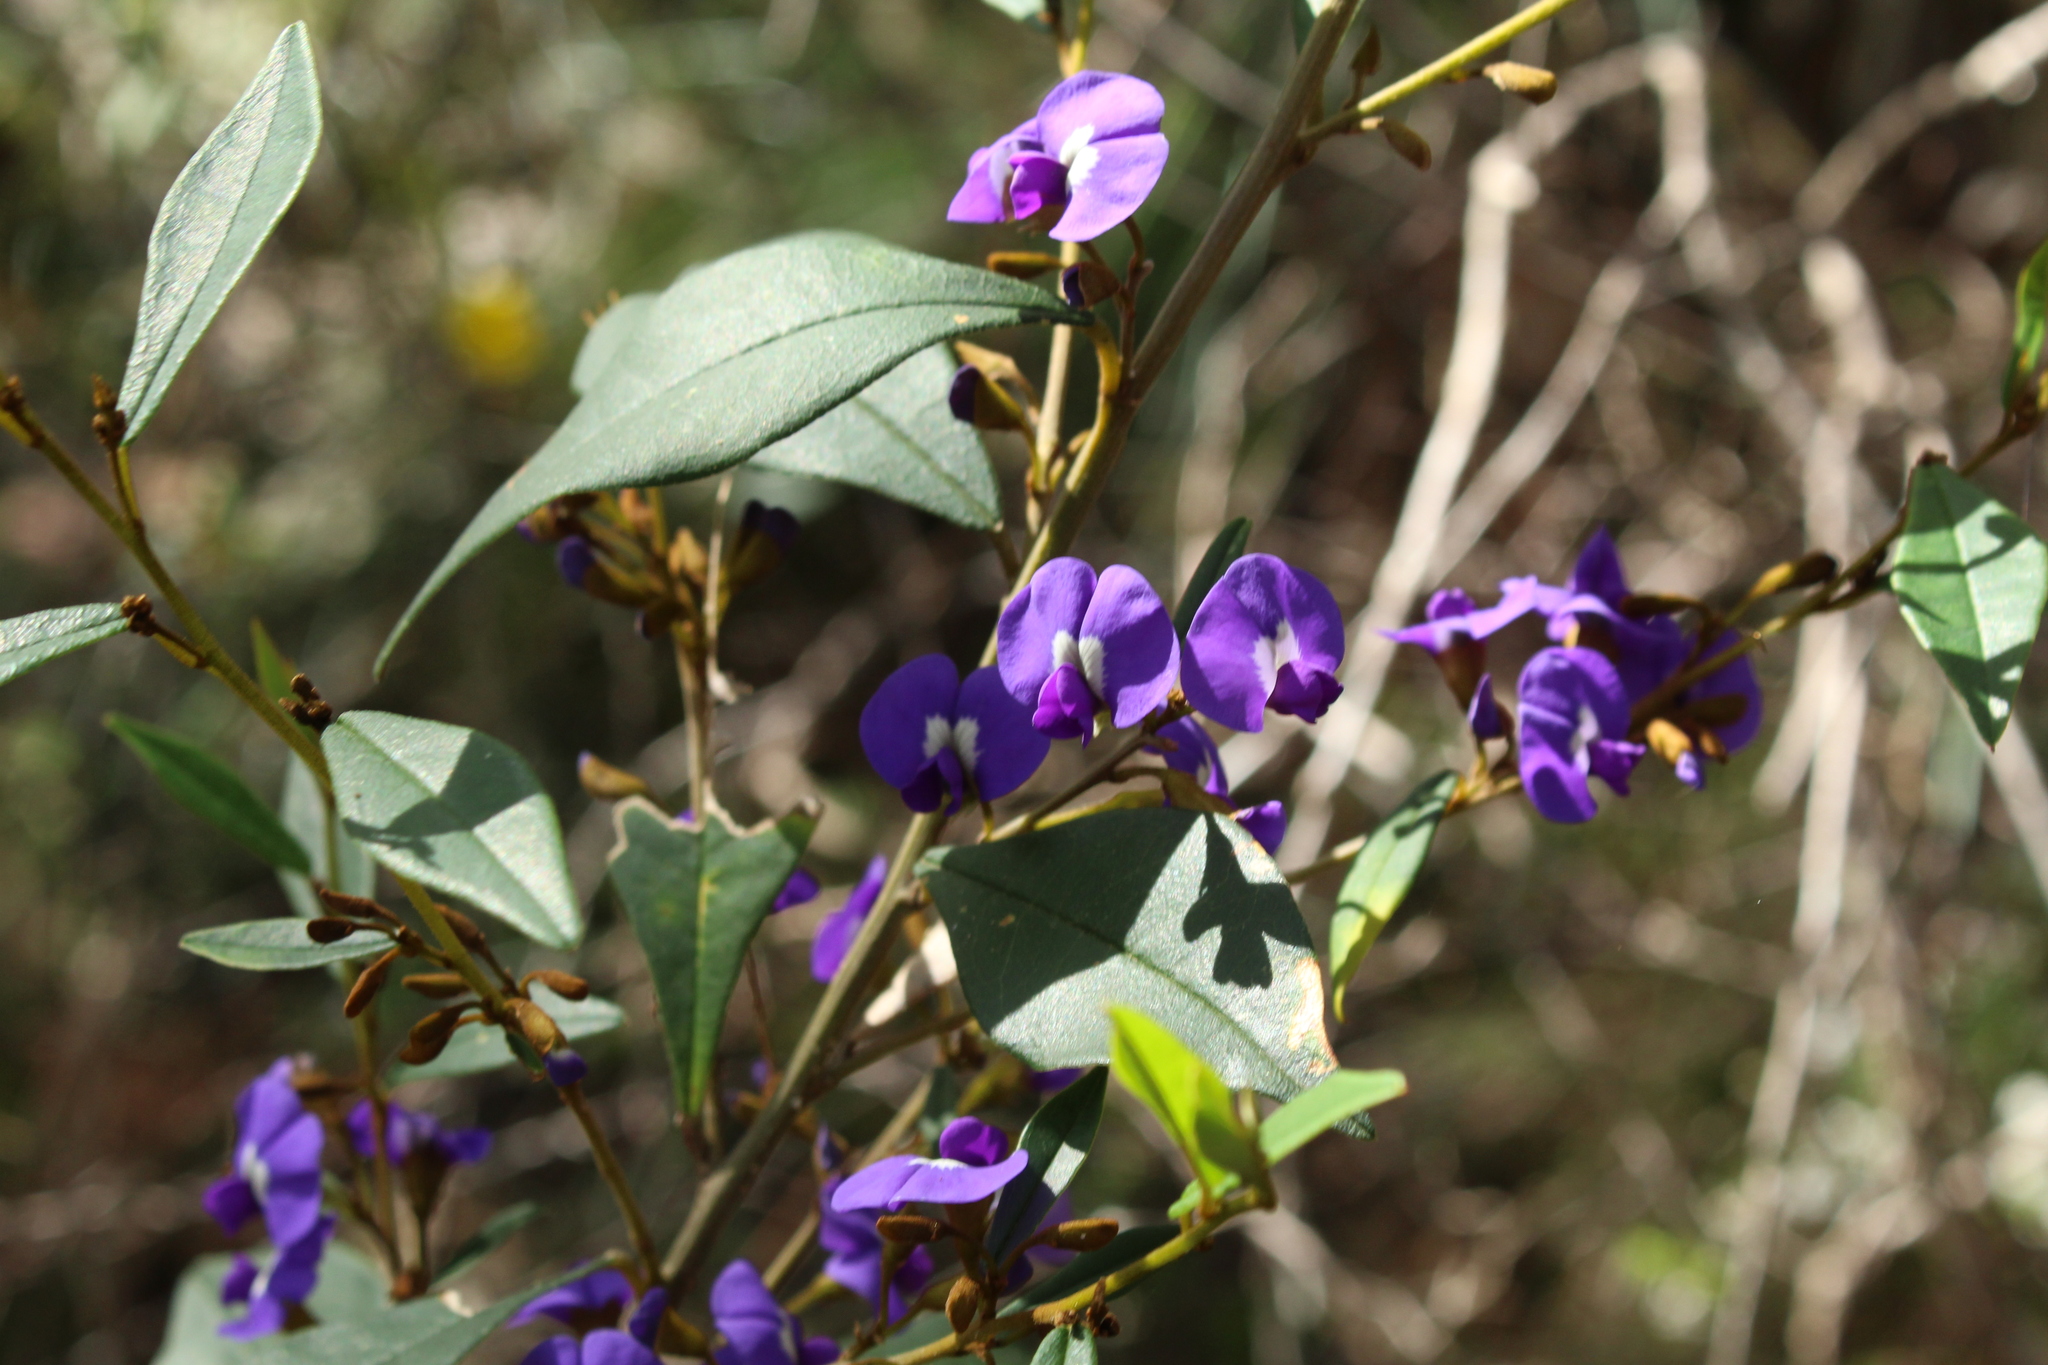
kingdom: Plantae
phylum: Tracheophyta
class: Magnoliopsida
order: Fabales
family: Fabaceae
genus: Hovea
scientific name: Hovea elliptica
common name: Tree hovea
